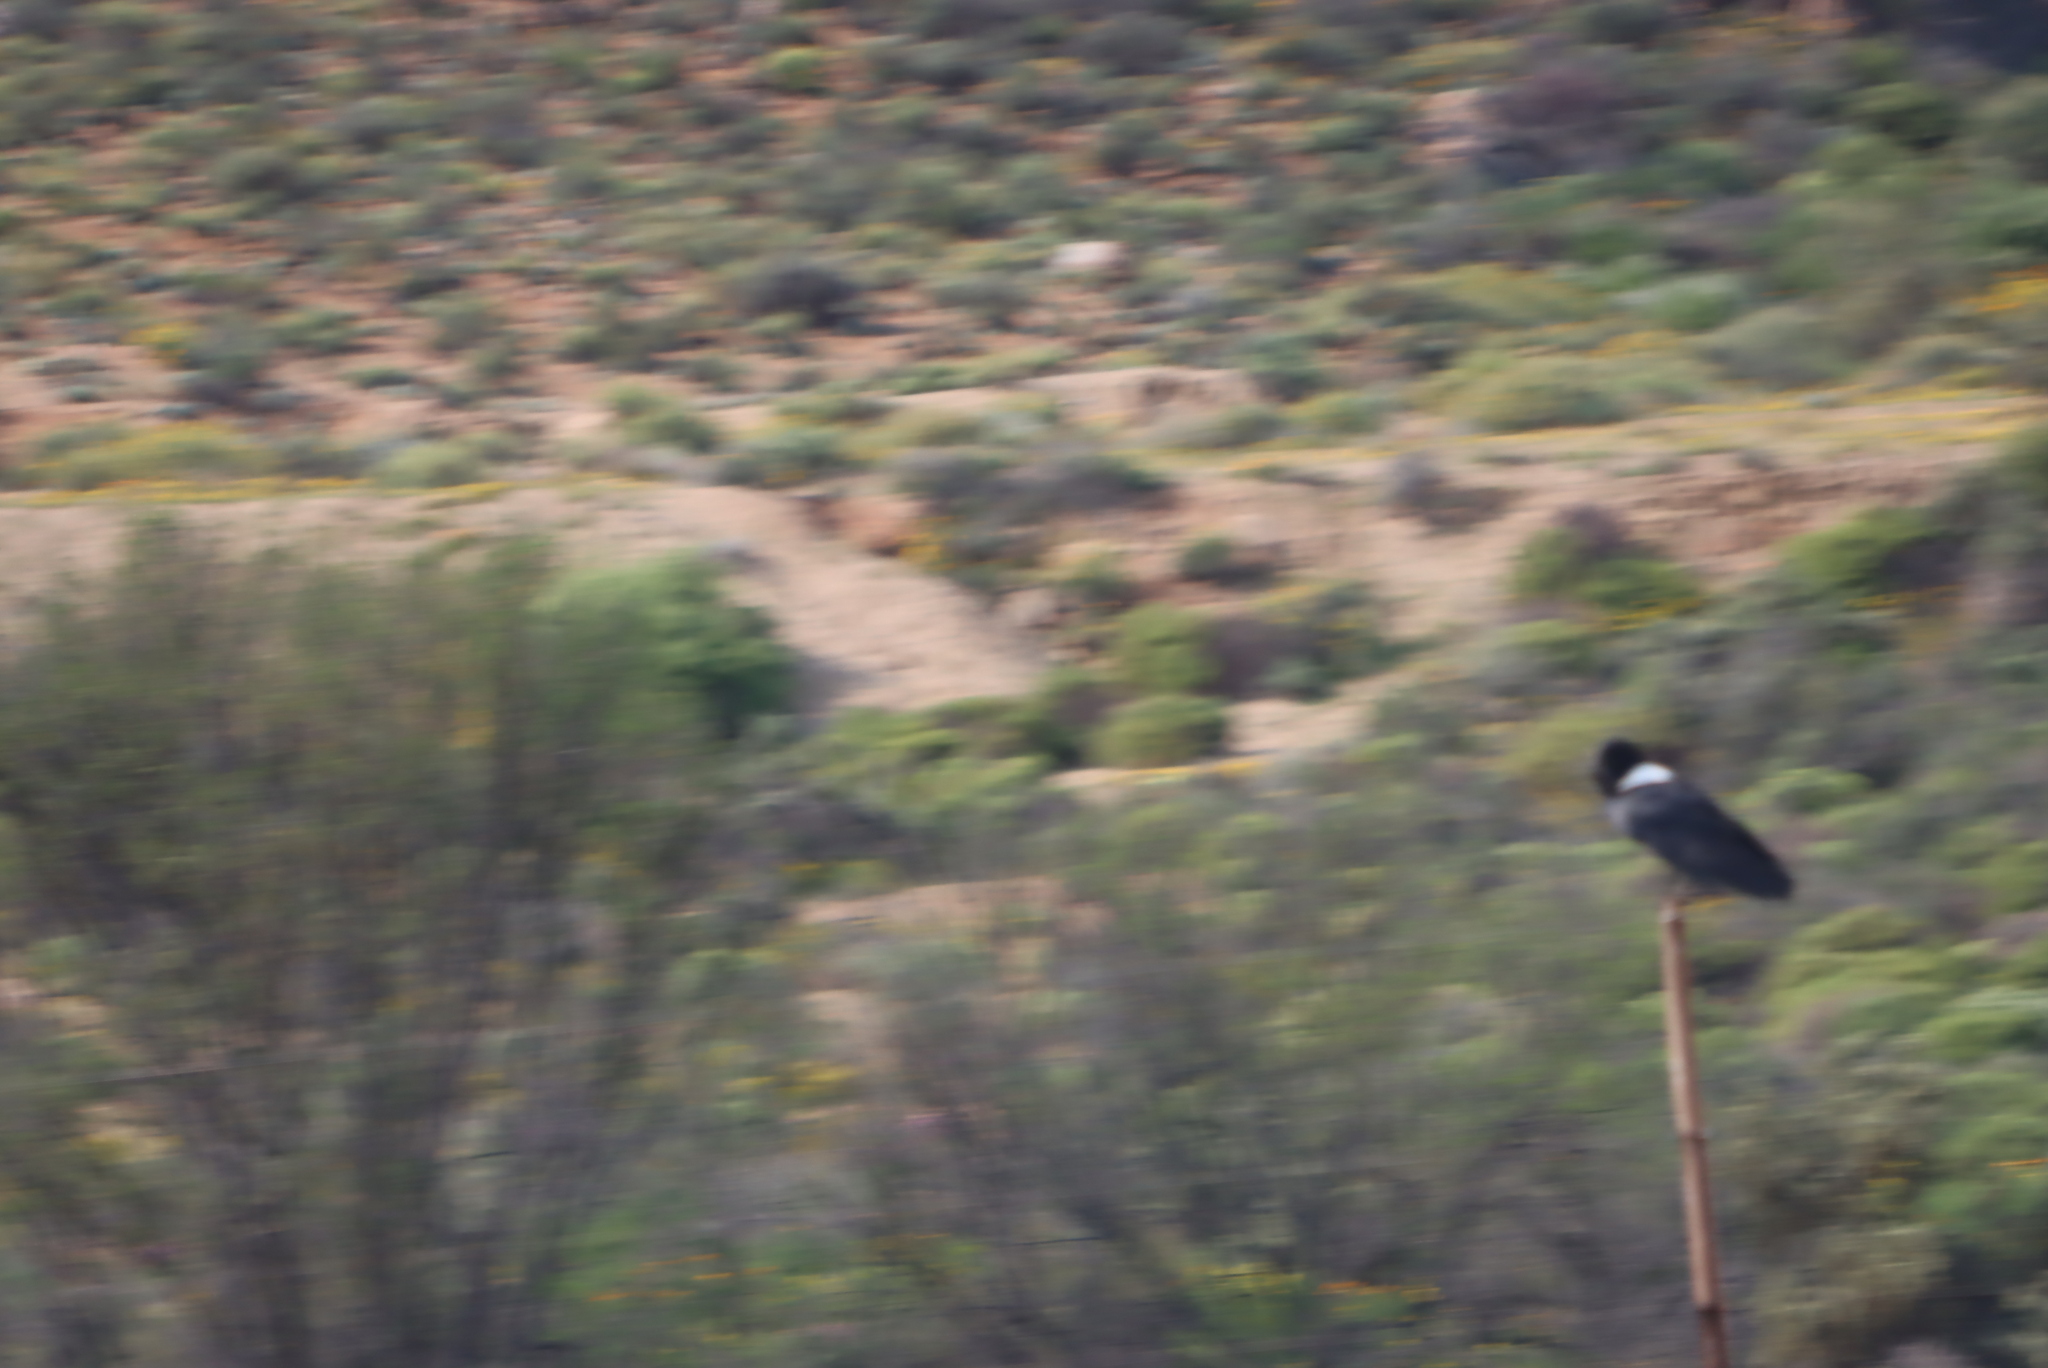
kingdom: Animalia
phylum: Chordata
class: Aves
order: Passeriformes
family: Corvidae
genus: Corvus
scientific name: Corvus albus
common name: Pied crow
